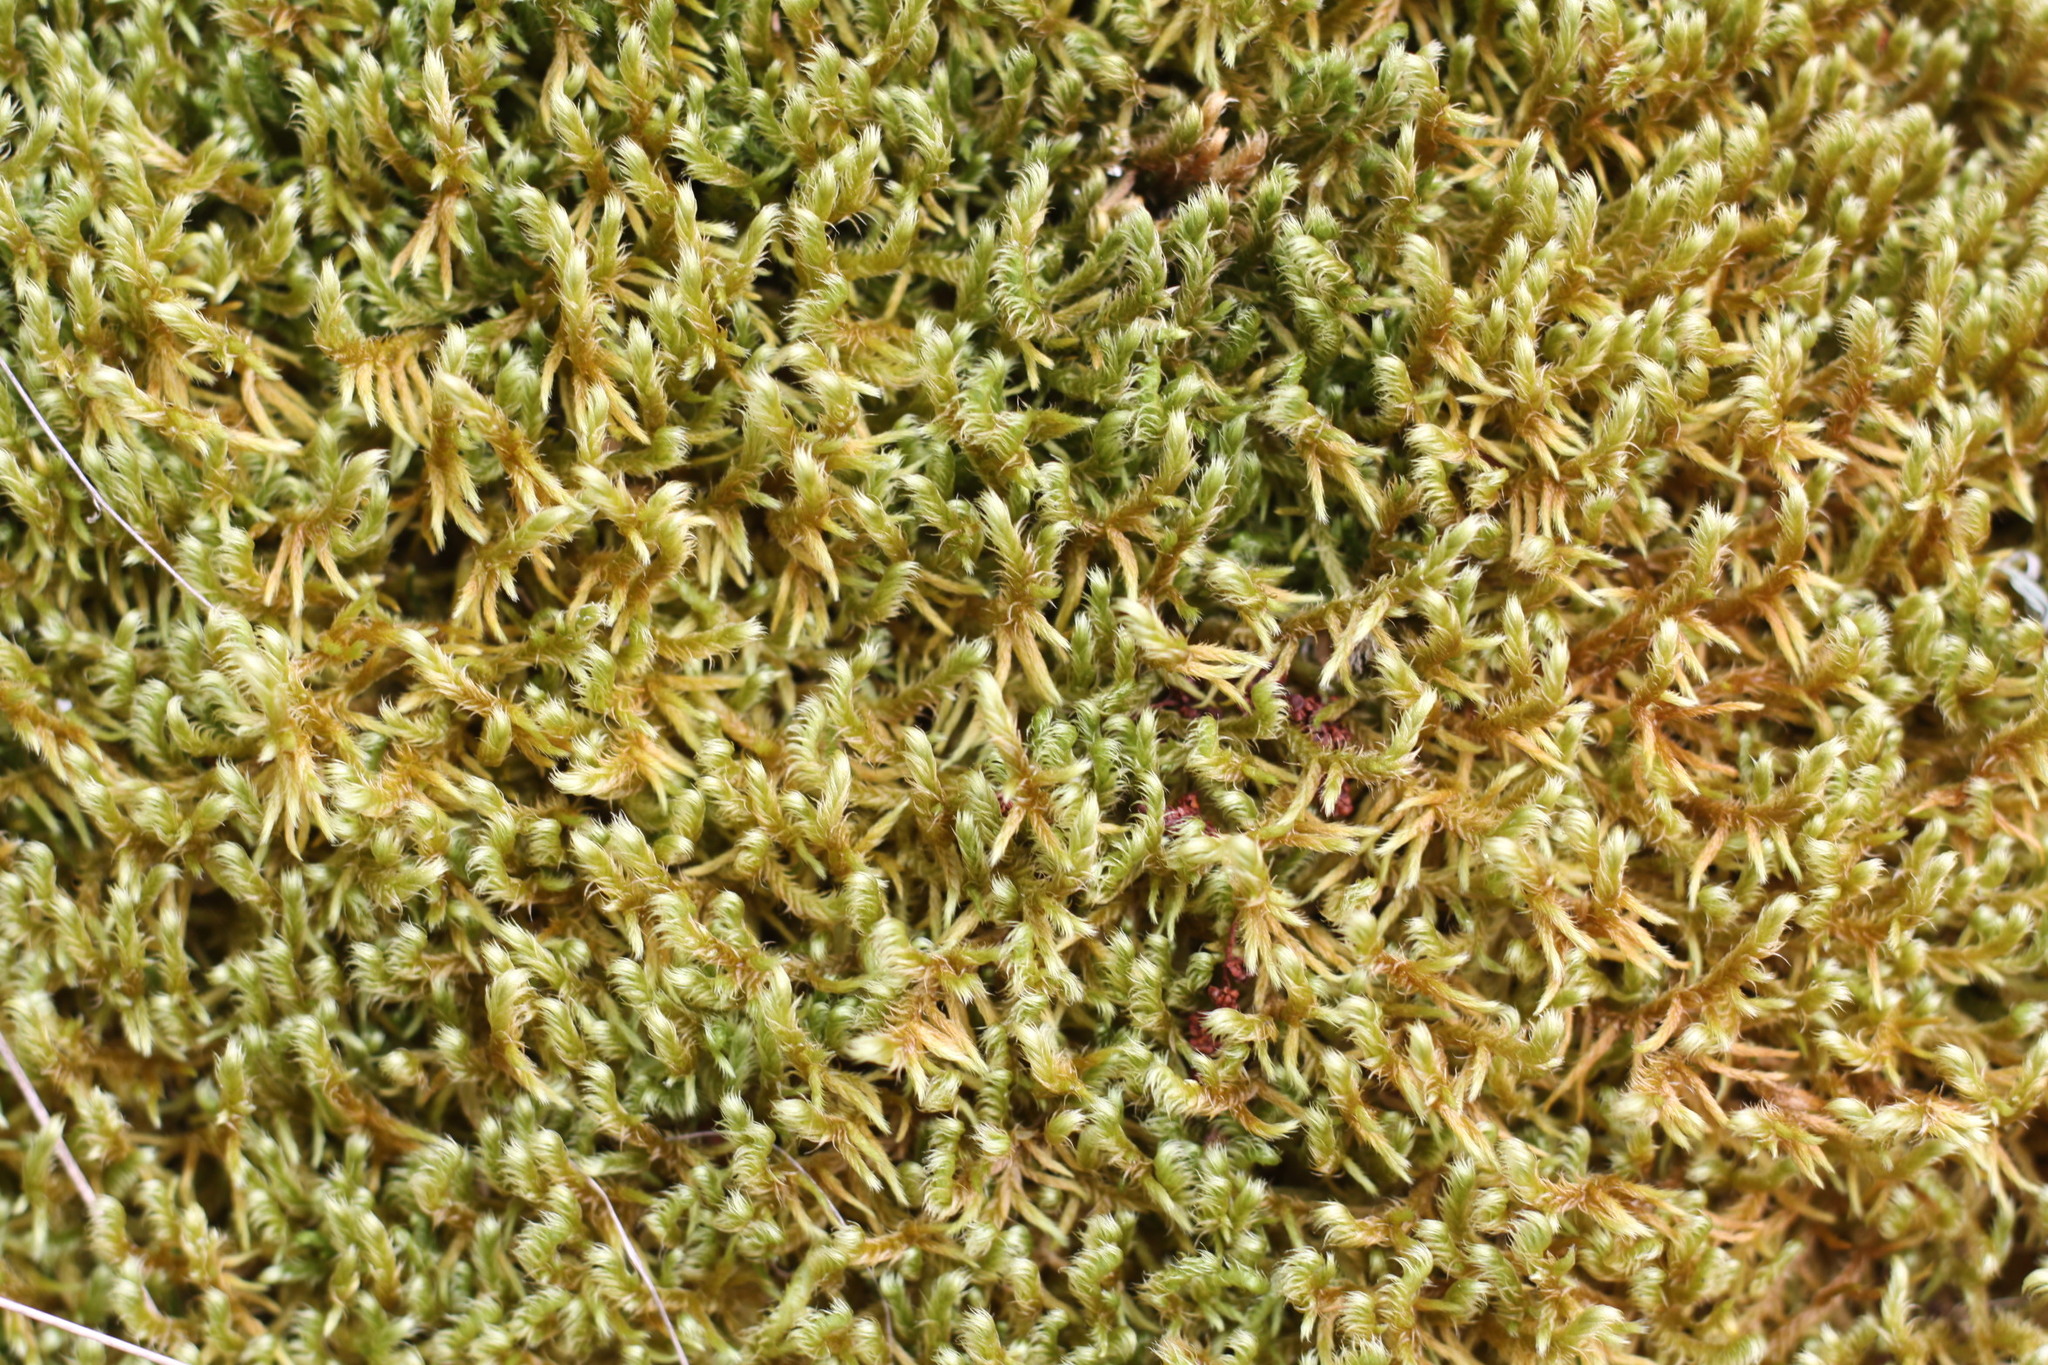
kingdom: Plantae
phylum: Bryophyta
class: Bryopsida
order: Hypnales
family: Rhytidiaceae
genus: Rhytidium
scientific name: Rhytidium rugosum
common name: Wrinkle-leaved moss
